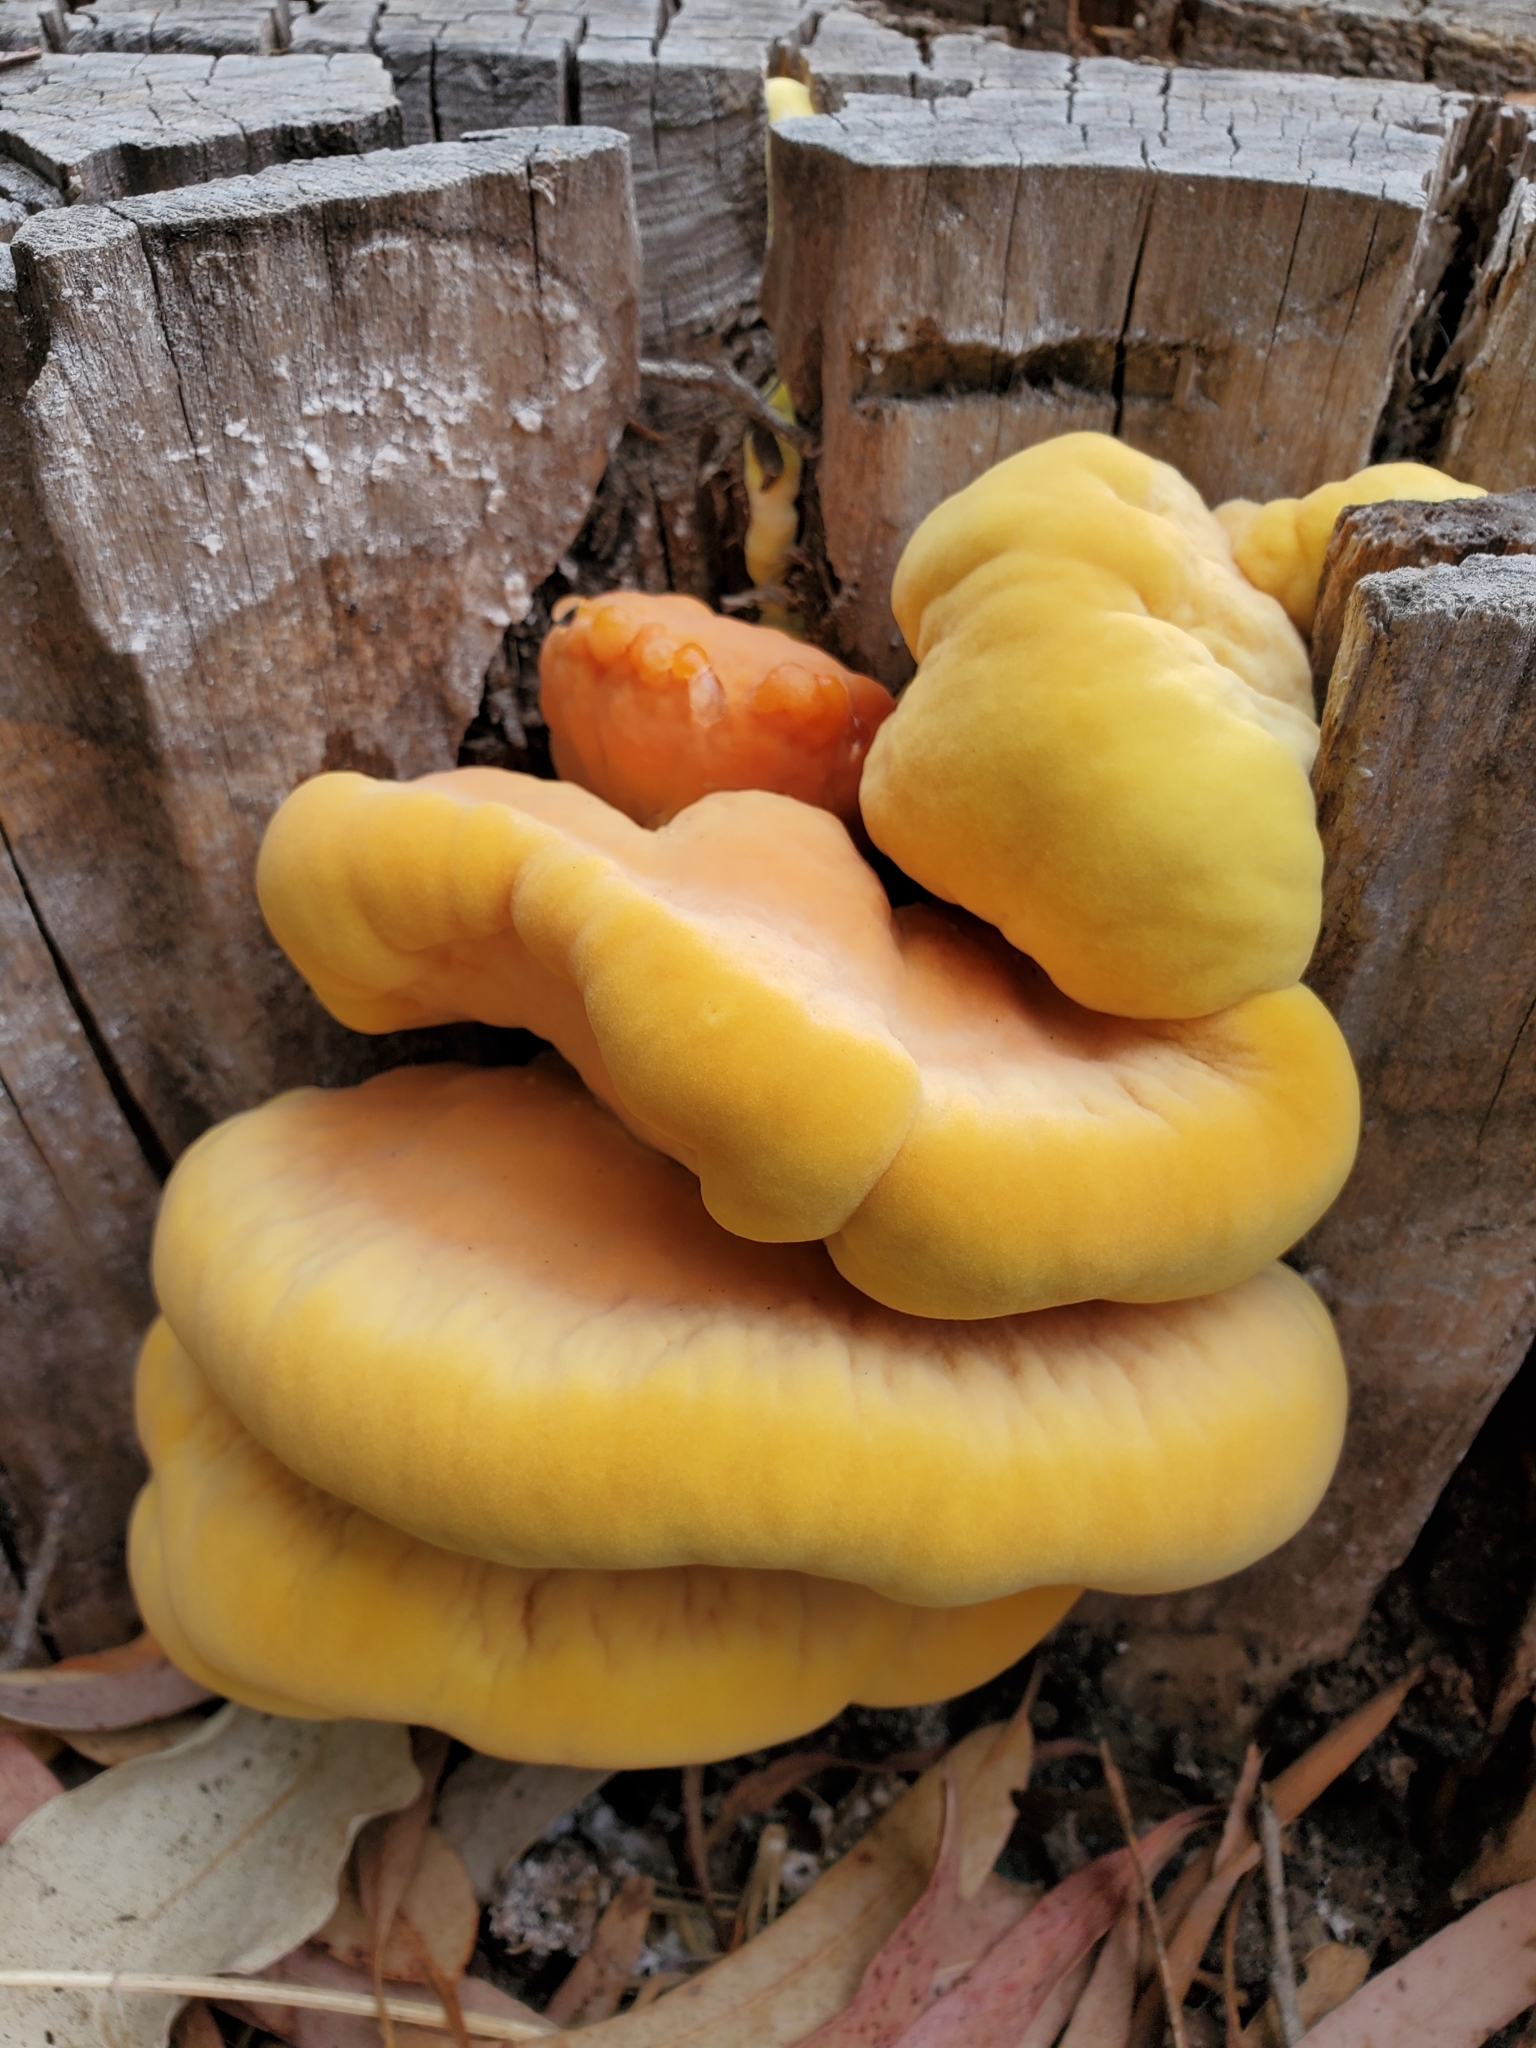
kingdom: Fungi
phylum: Basidiomycota
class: Agaricomycetes
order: Polyporales
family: Laetiporaceae
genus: Laetiporus
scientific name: Laetiporus gilbertsonii
